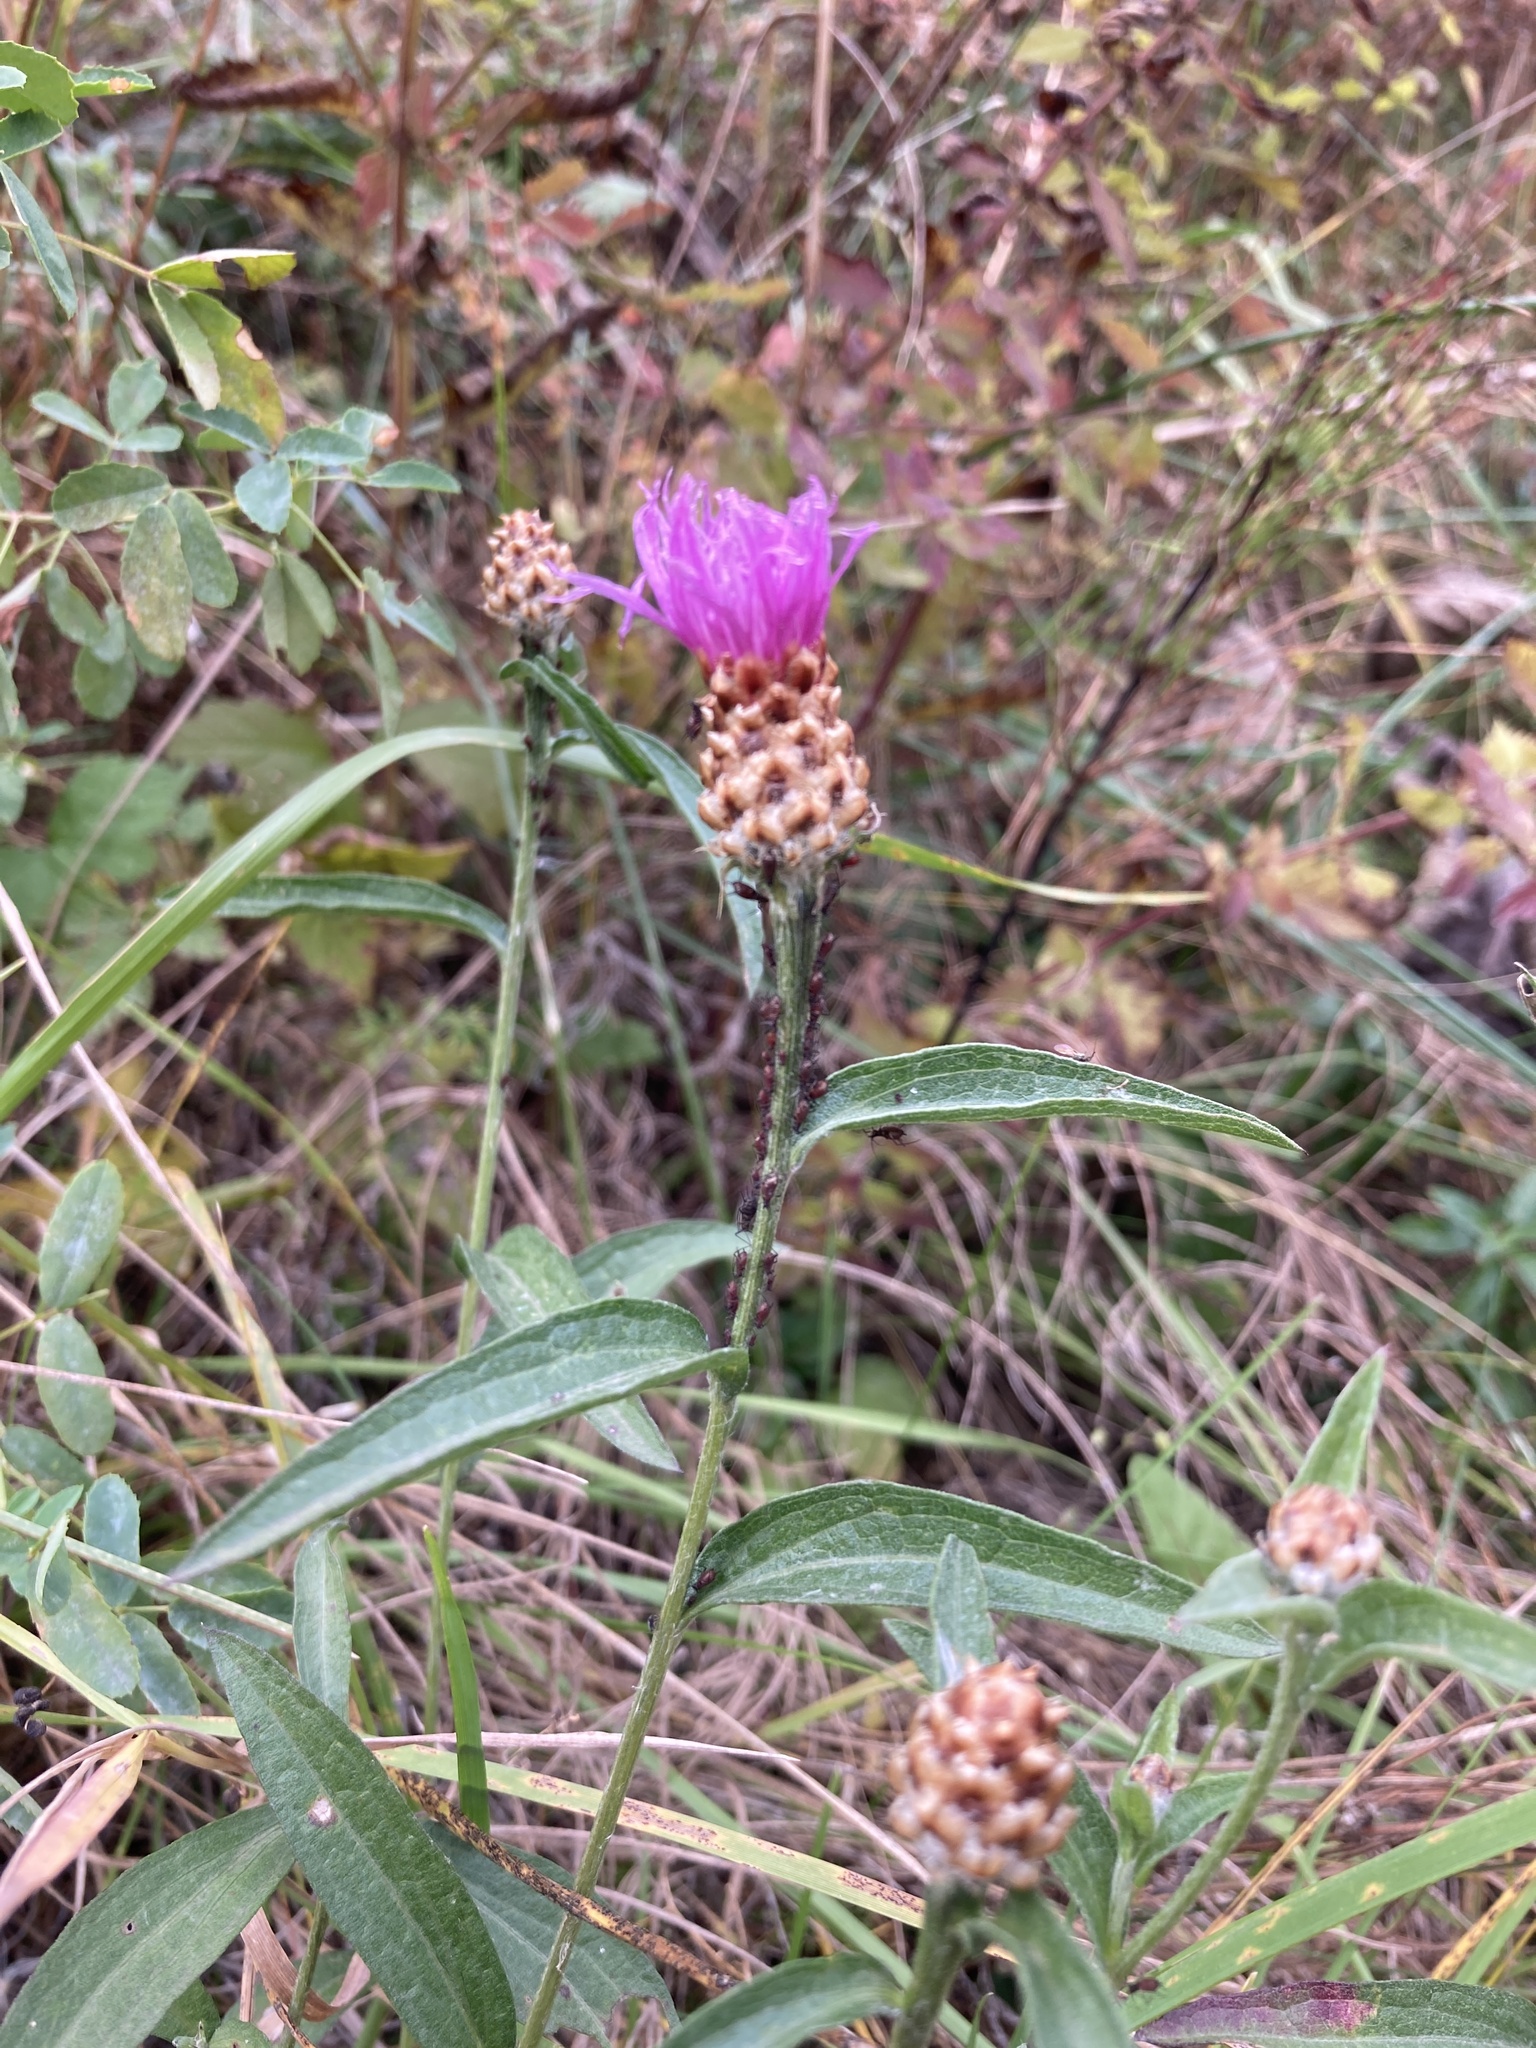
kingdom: Plantae
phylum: Tracheophyta
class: Magnoliopsida
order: Asterales
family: Asteraceae
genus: Centaurea
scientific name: Centaurea jacea
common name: Brown knapweed
